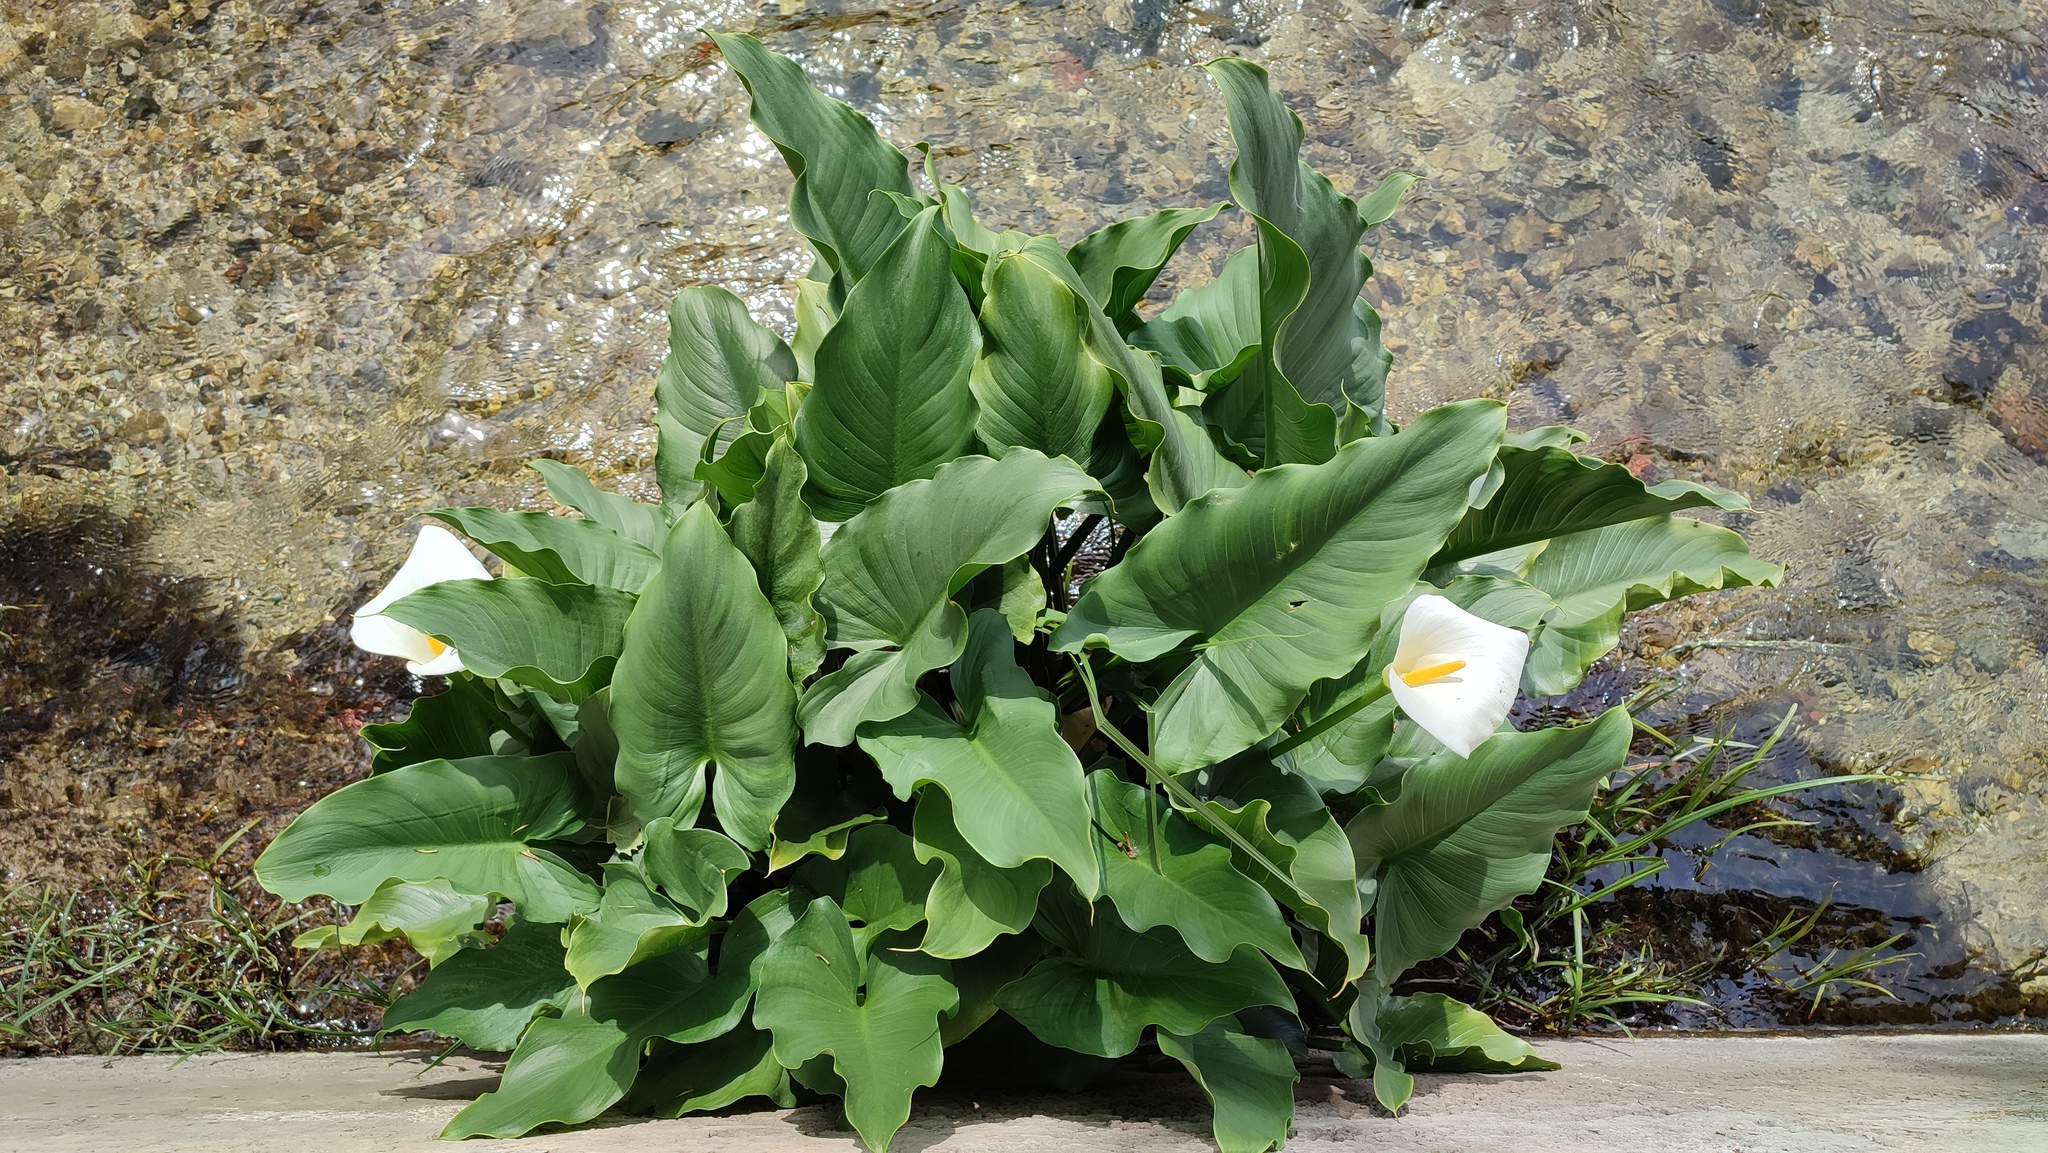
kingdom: Plantae
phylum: Tracheophyta
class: Liliopsida
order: Alismatales
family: Araceae
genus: Zantedeschia
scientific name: Zantedeschia aethiopica
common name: Altar-lily
